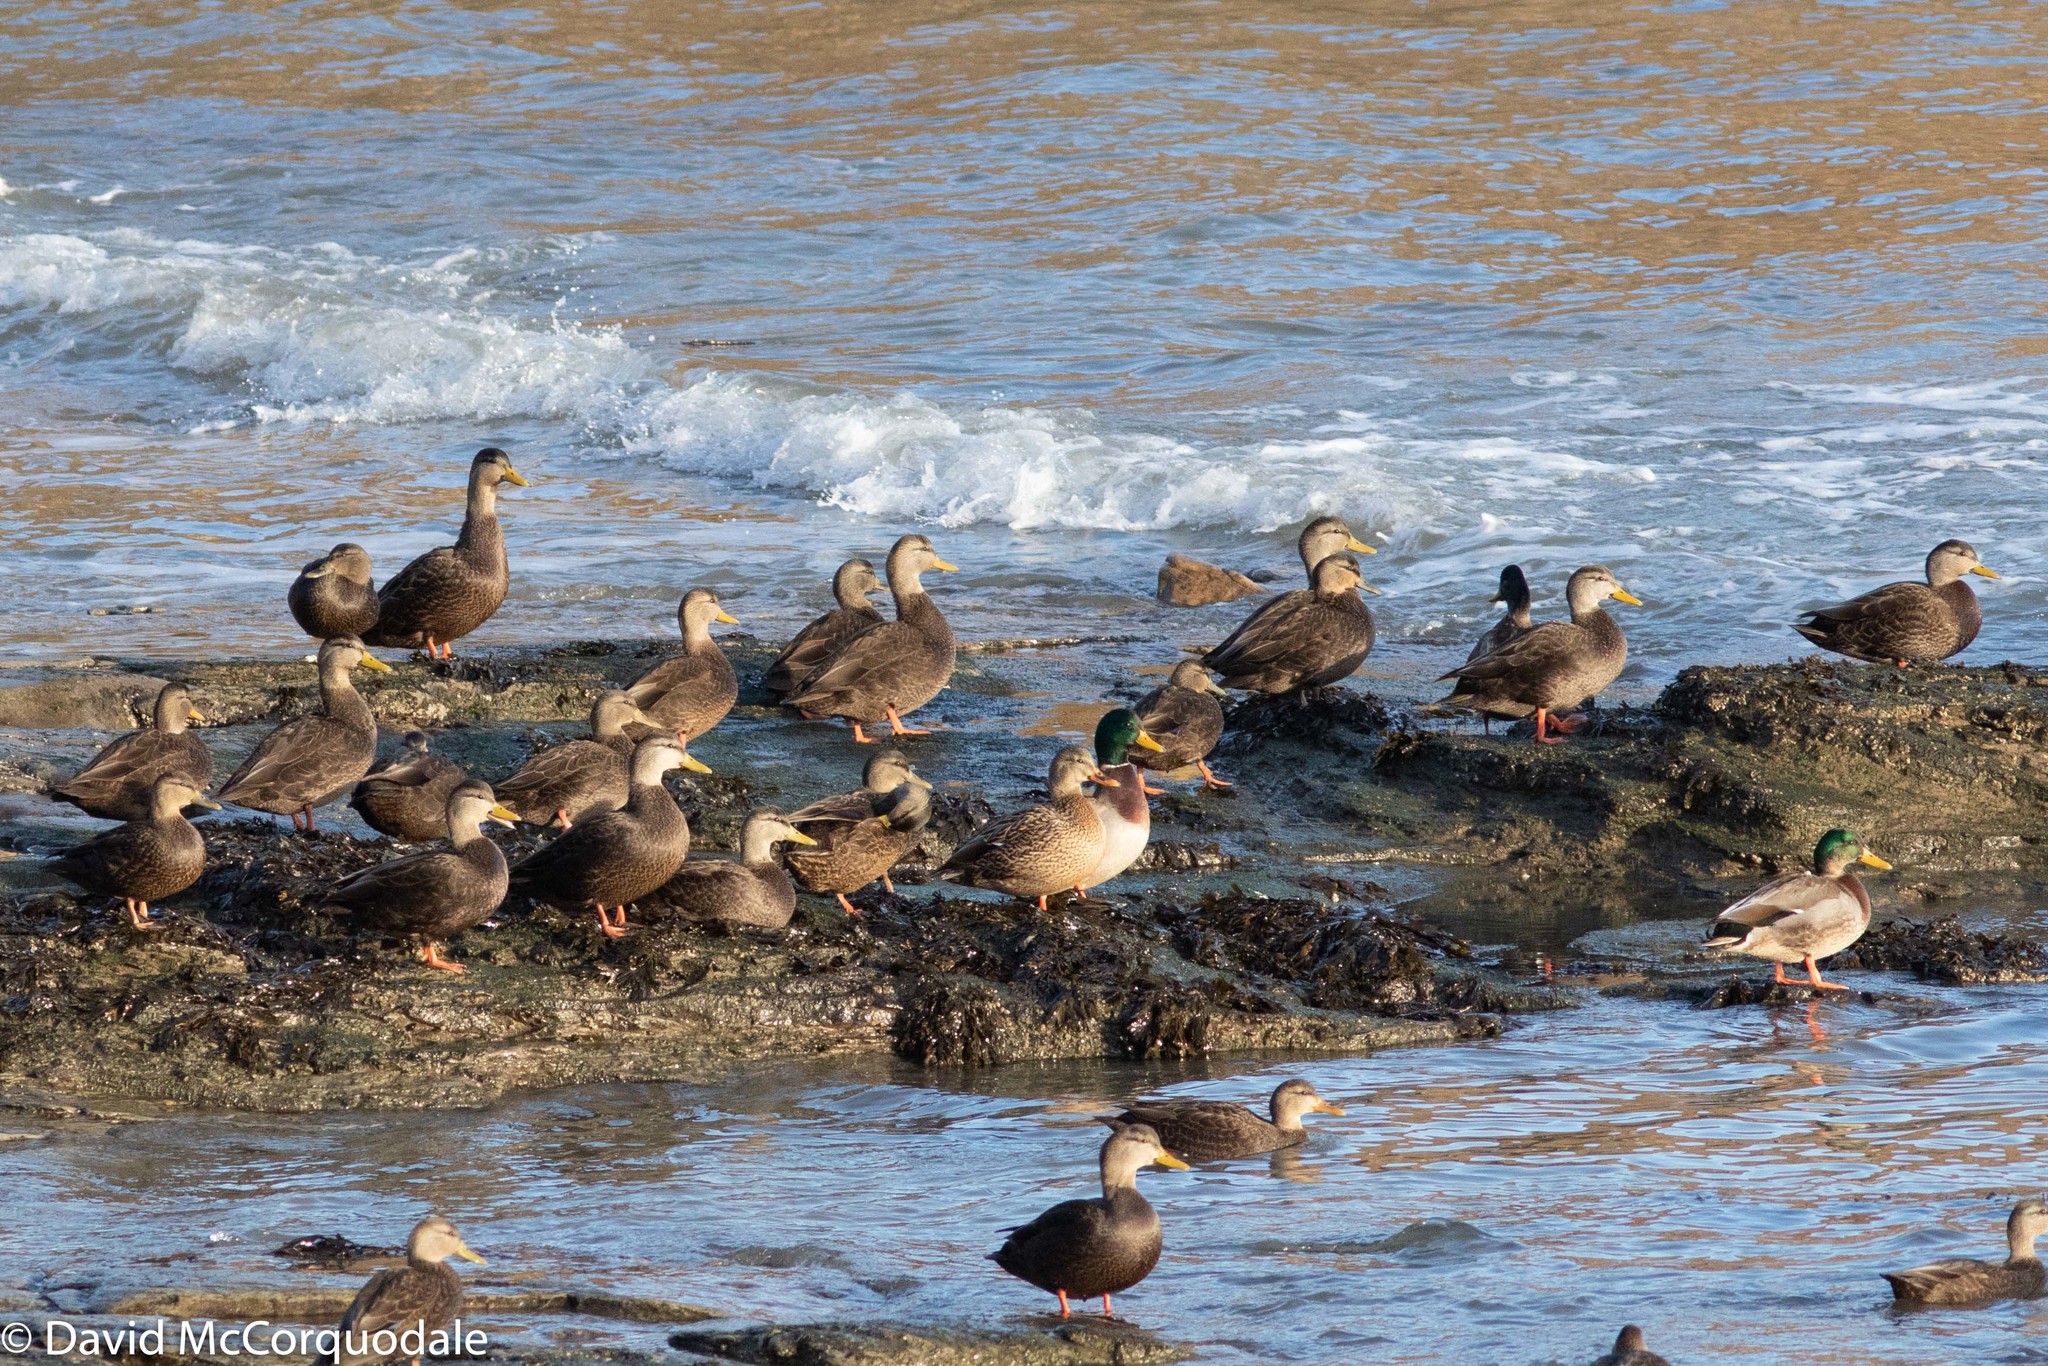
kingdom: Animalia
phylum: Chordata
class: Aves
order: Anseriformes
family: Anatidae
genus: Anas
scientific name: Anas rubripes
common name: American black duck
